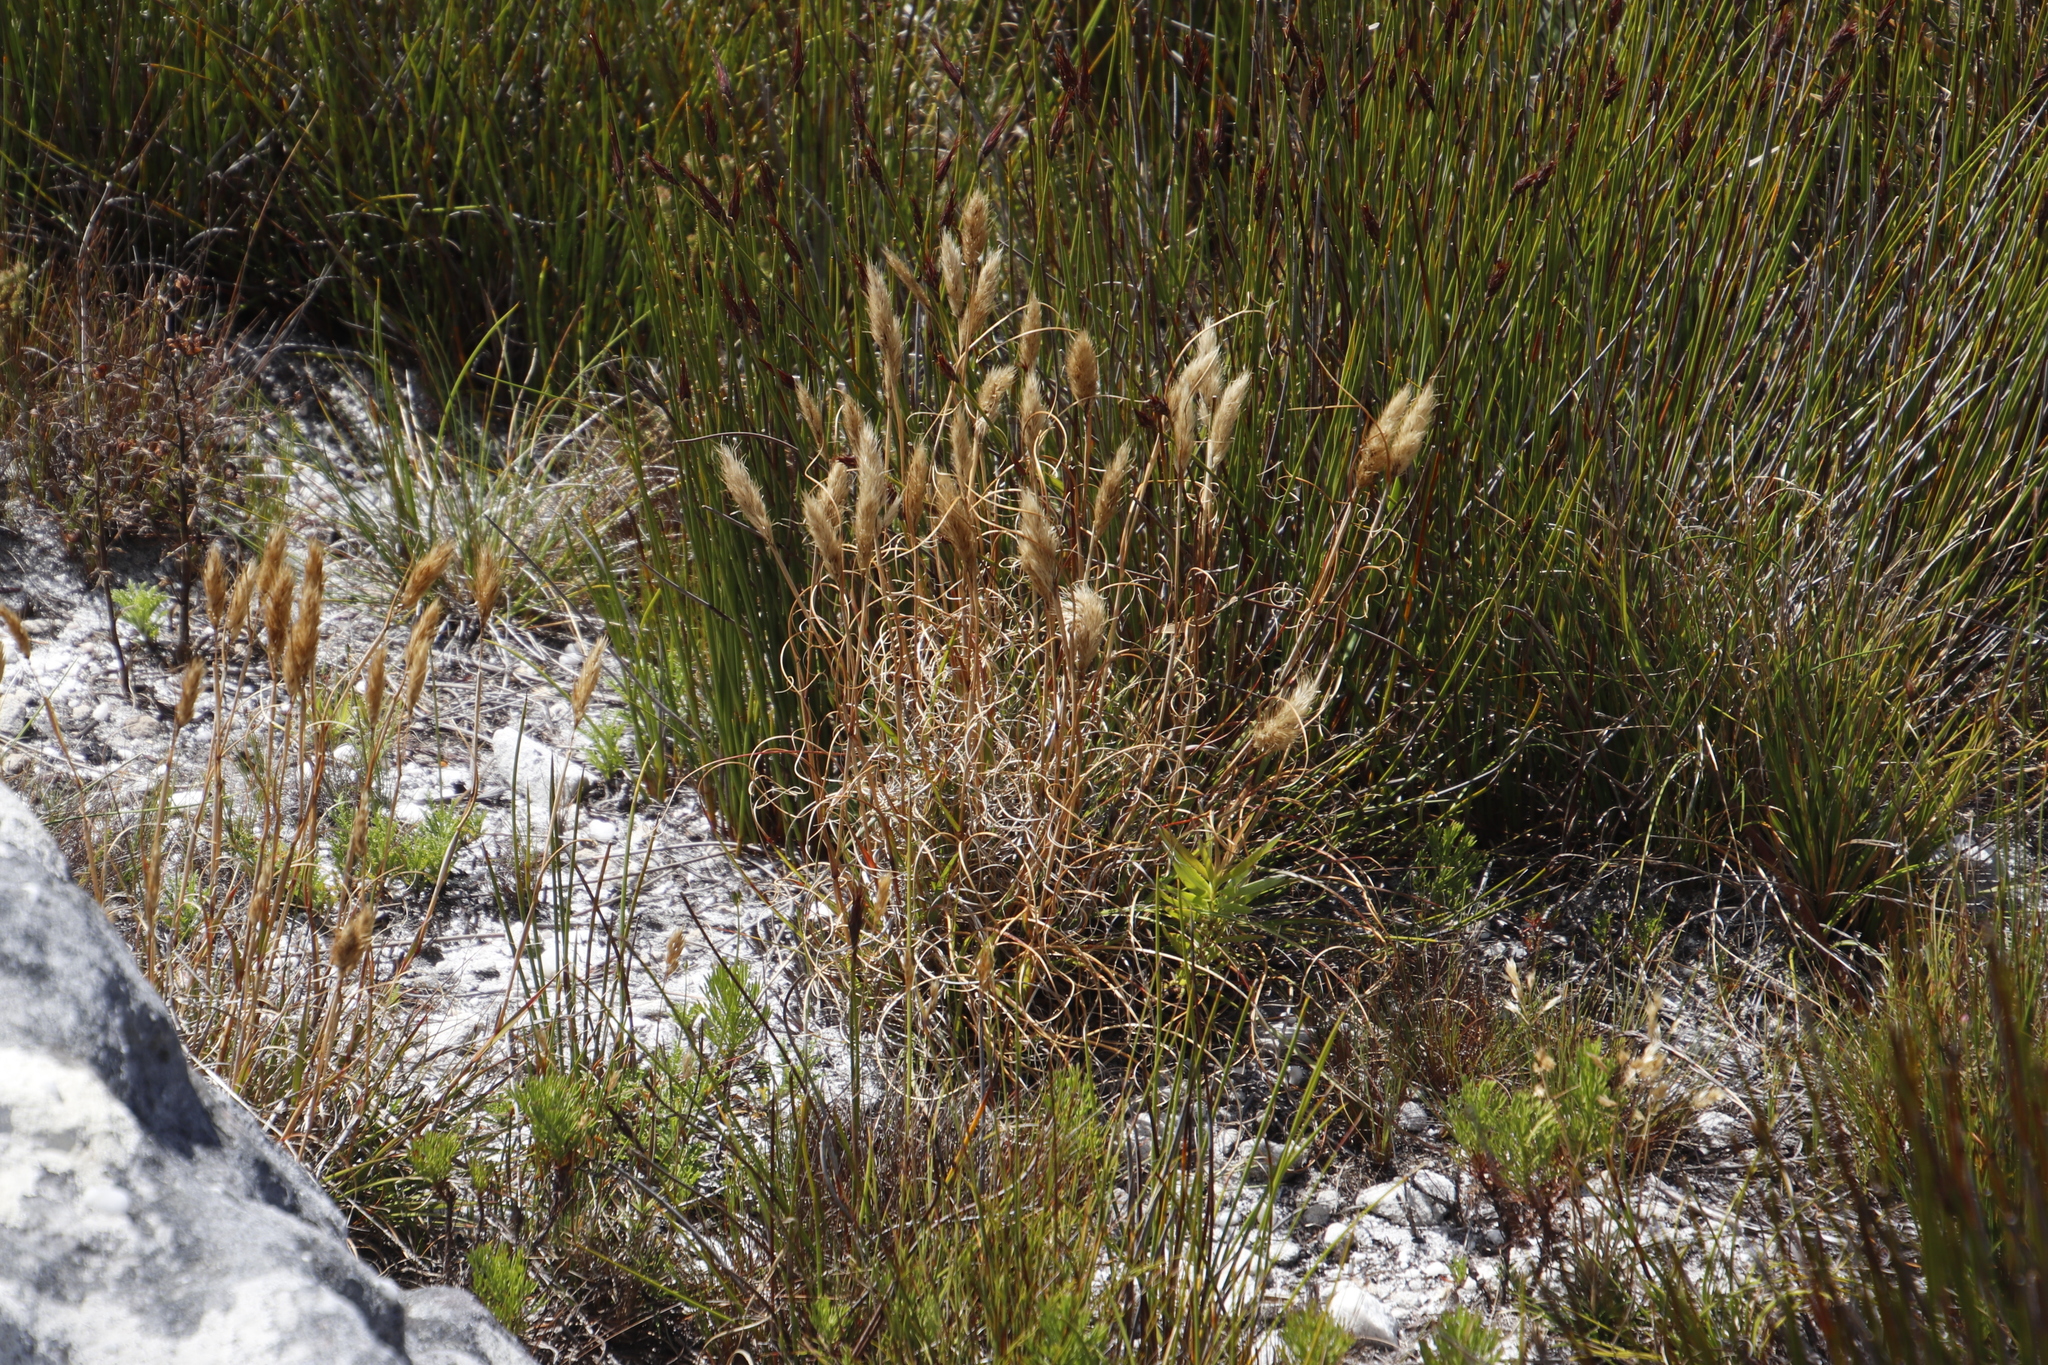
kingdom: Plantae
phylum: Tracheophyta
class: Liliopsida
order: Poales
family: Poaceae
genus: Pentameris
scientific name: Pentameris curvifolia
